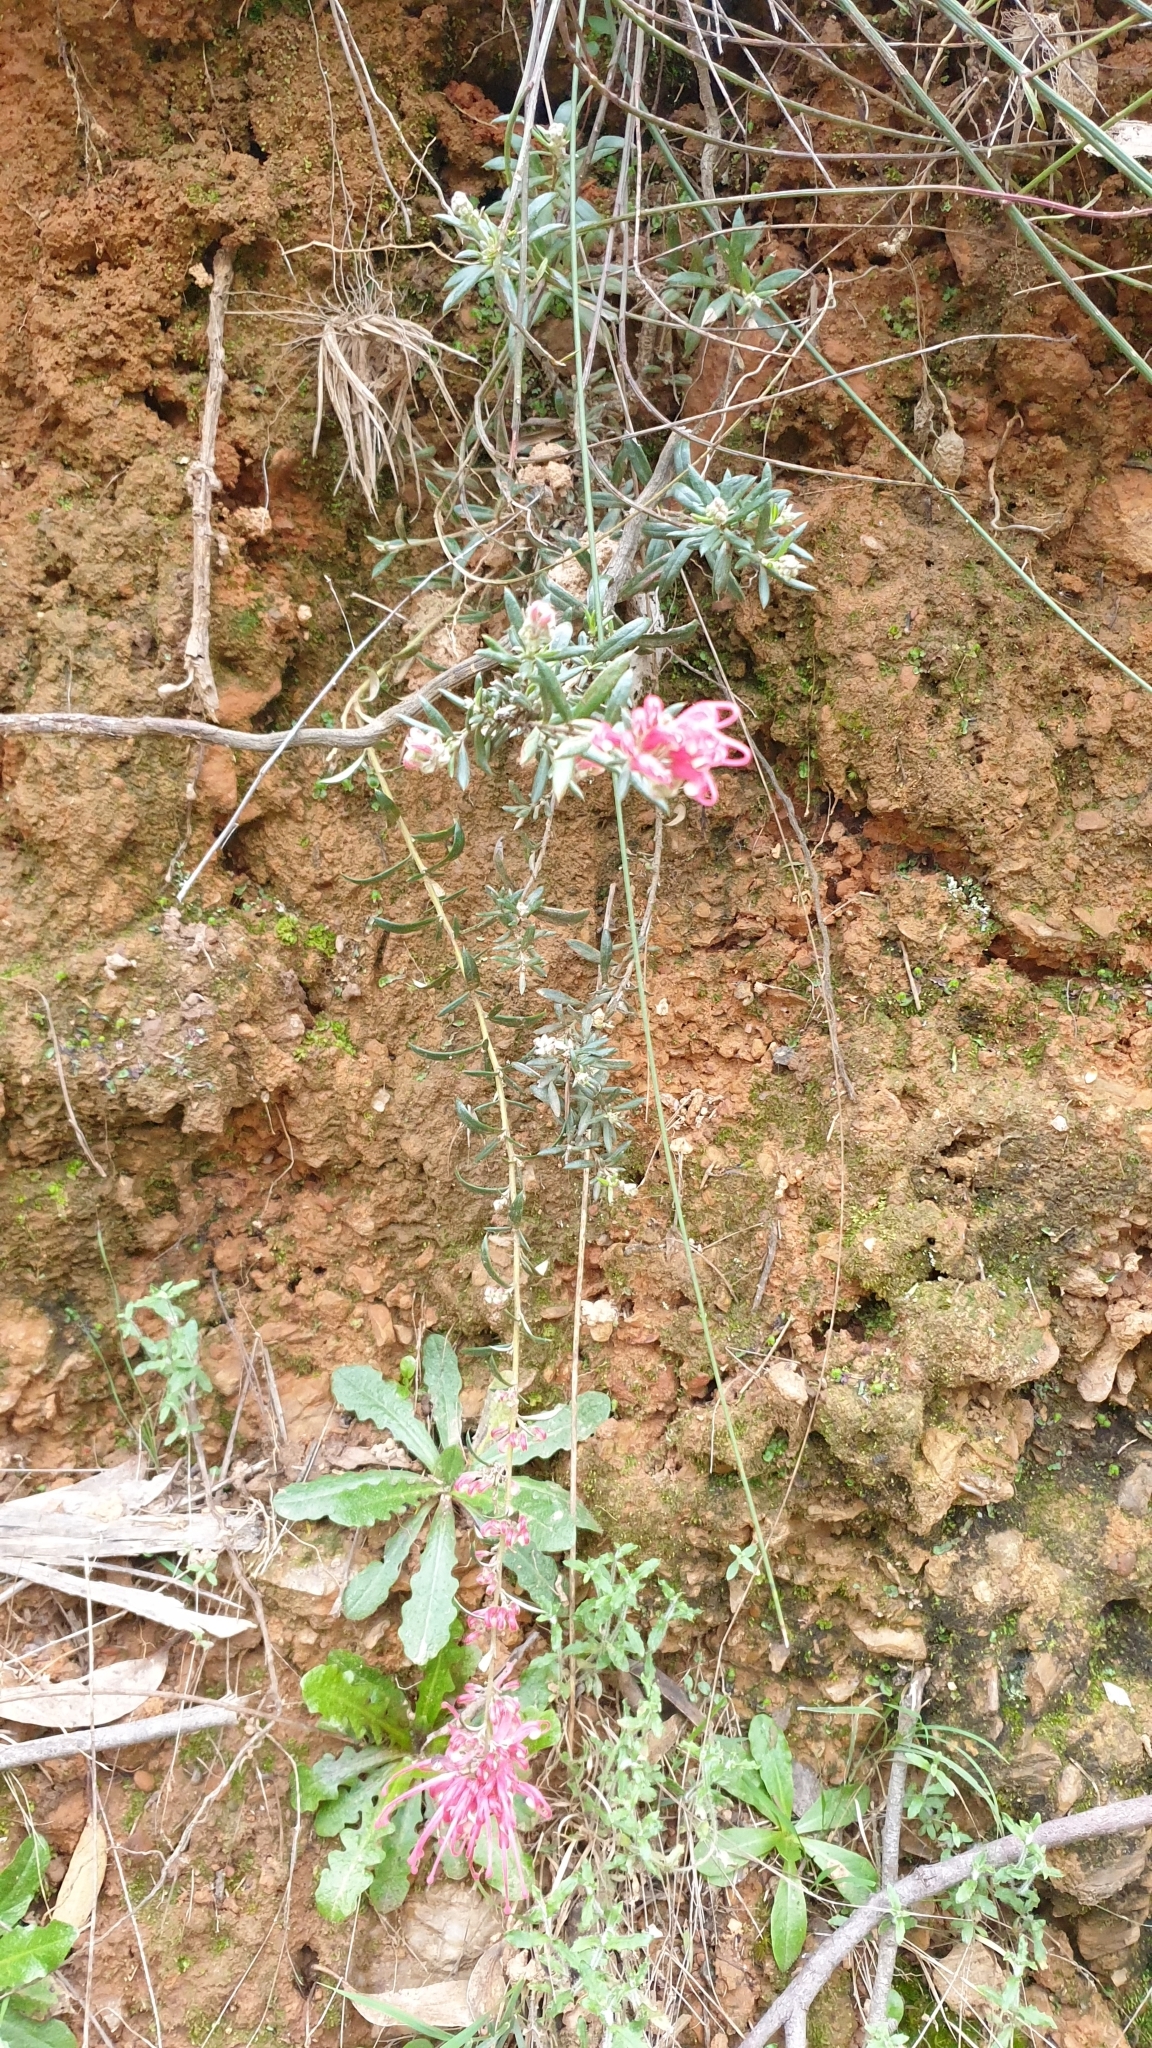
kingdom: Plantae
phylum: Tracheophyta
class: Magnoliopsida
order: Proteales
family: Proteaceae
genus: Grevillea
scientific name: Grevillea lavandulacea
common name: Lavender grevillea
